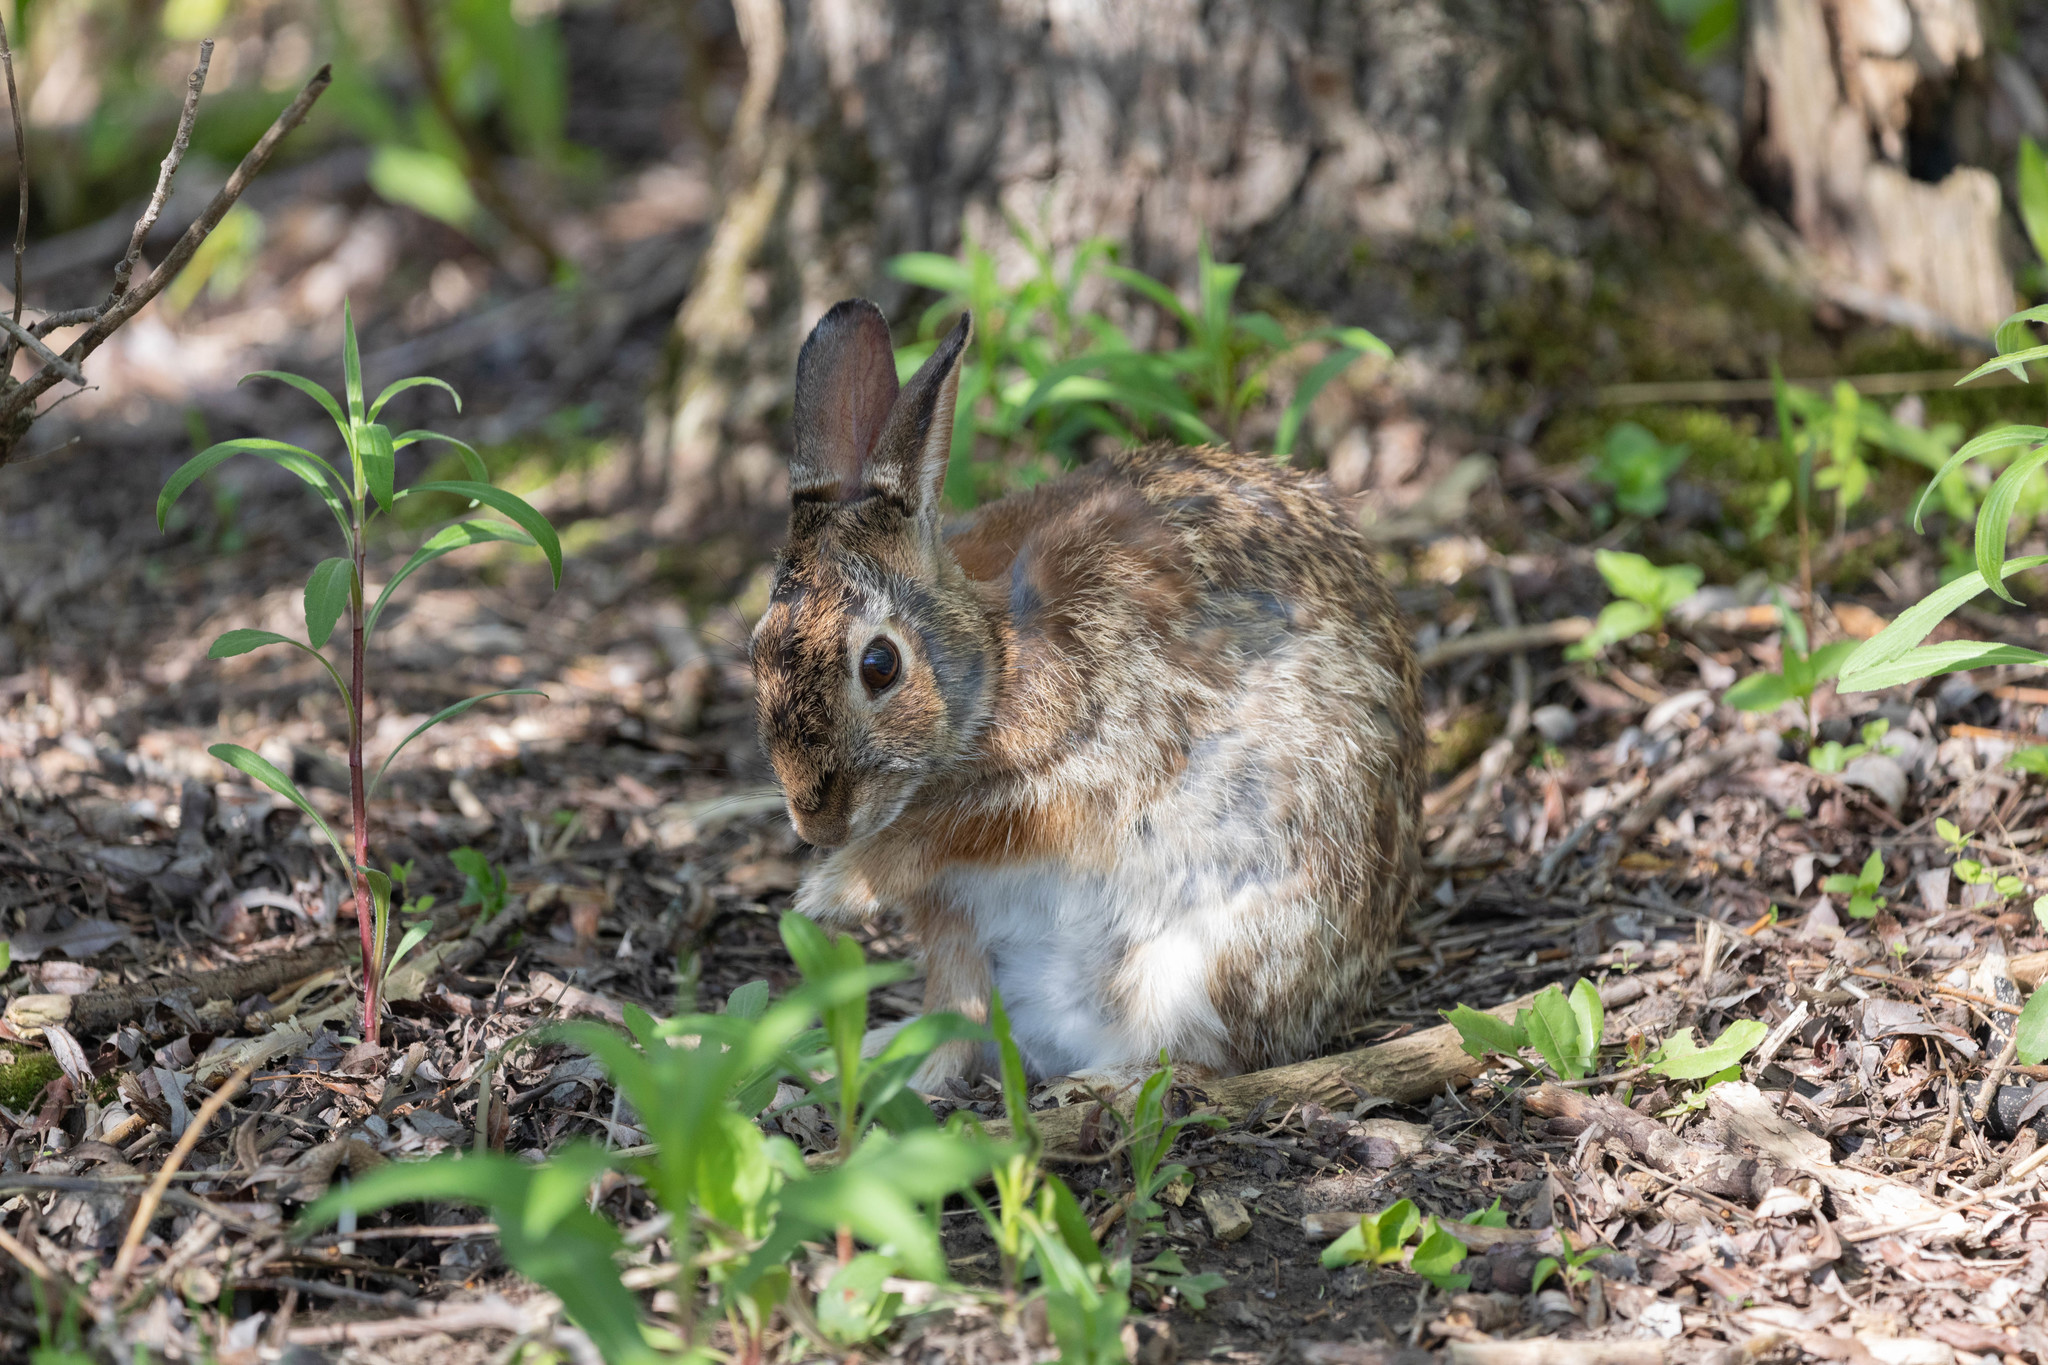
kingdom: Animalia
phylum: Chordata
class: Mammalia
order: Lagomorpha
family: Leporidae
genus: Sylvilagus
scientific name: Sylvilagus floridanus
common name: Eastern cottontail
